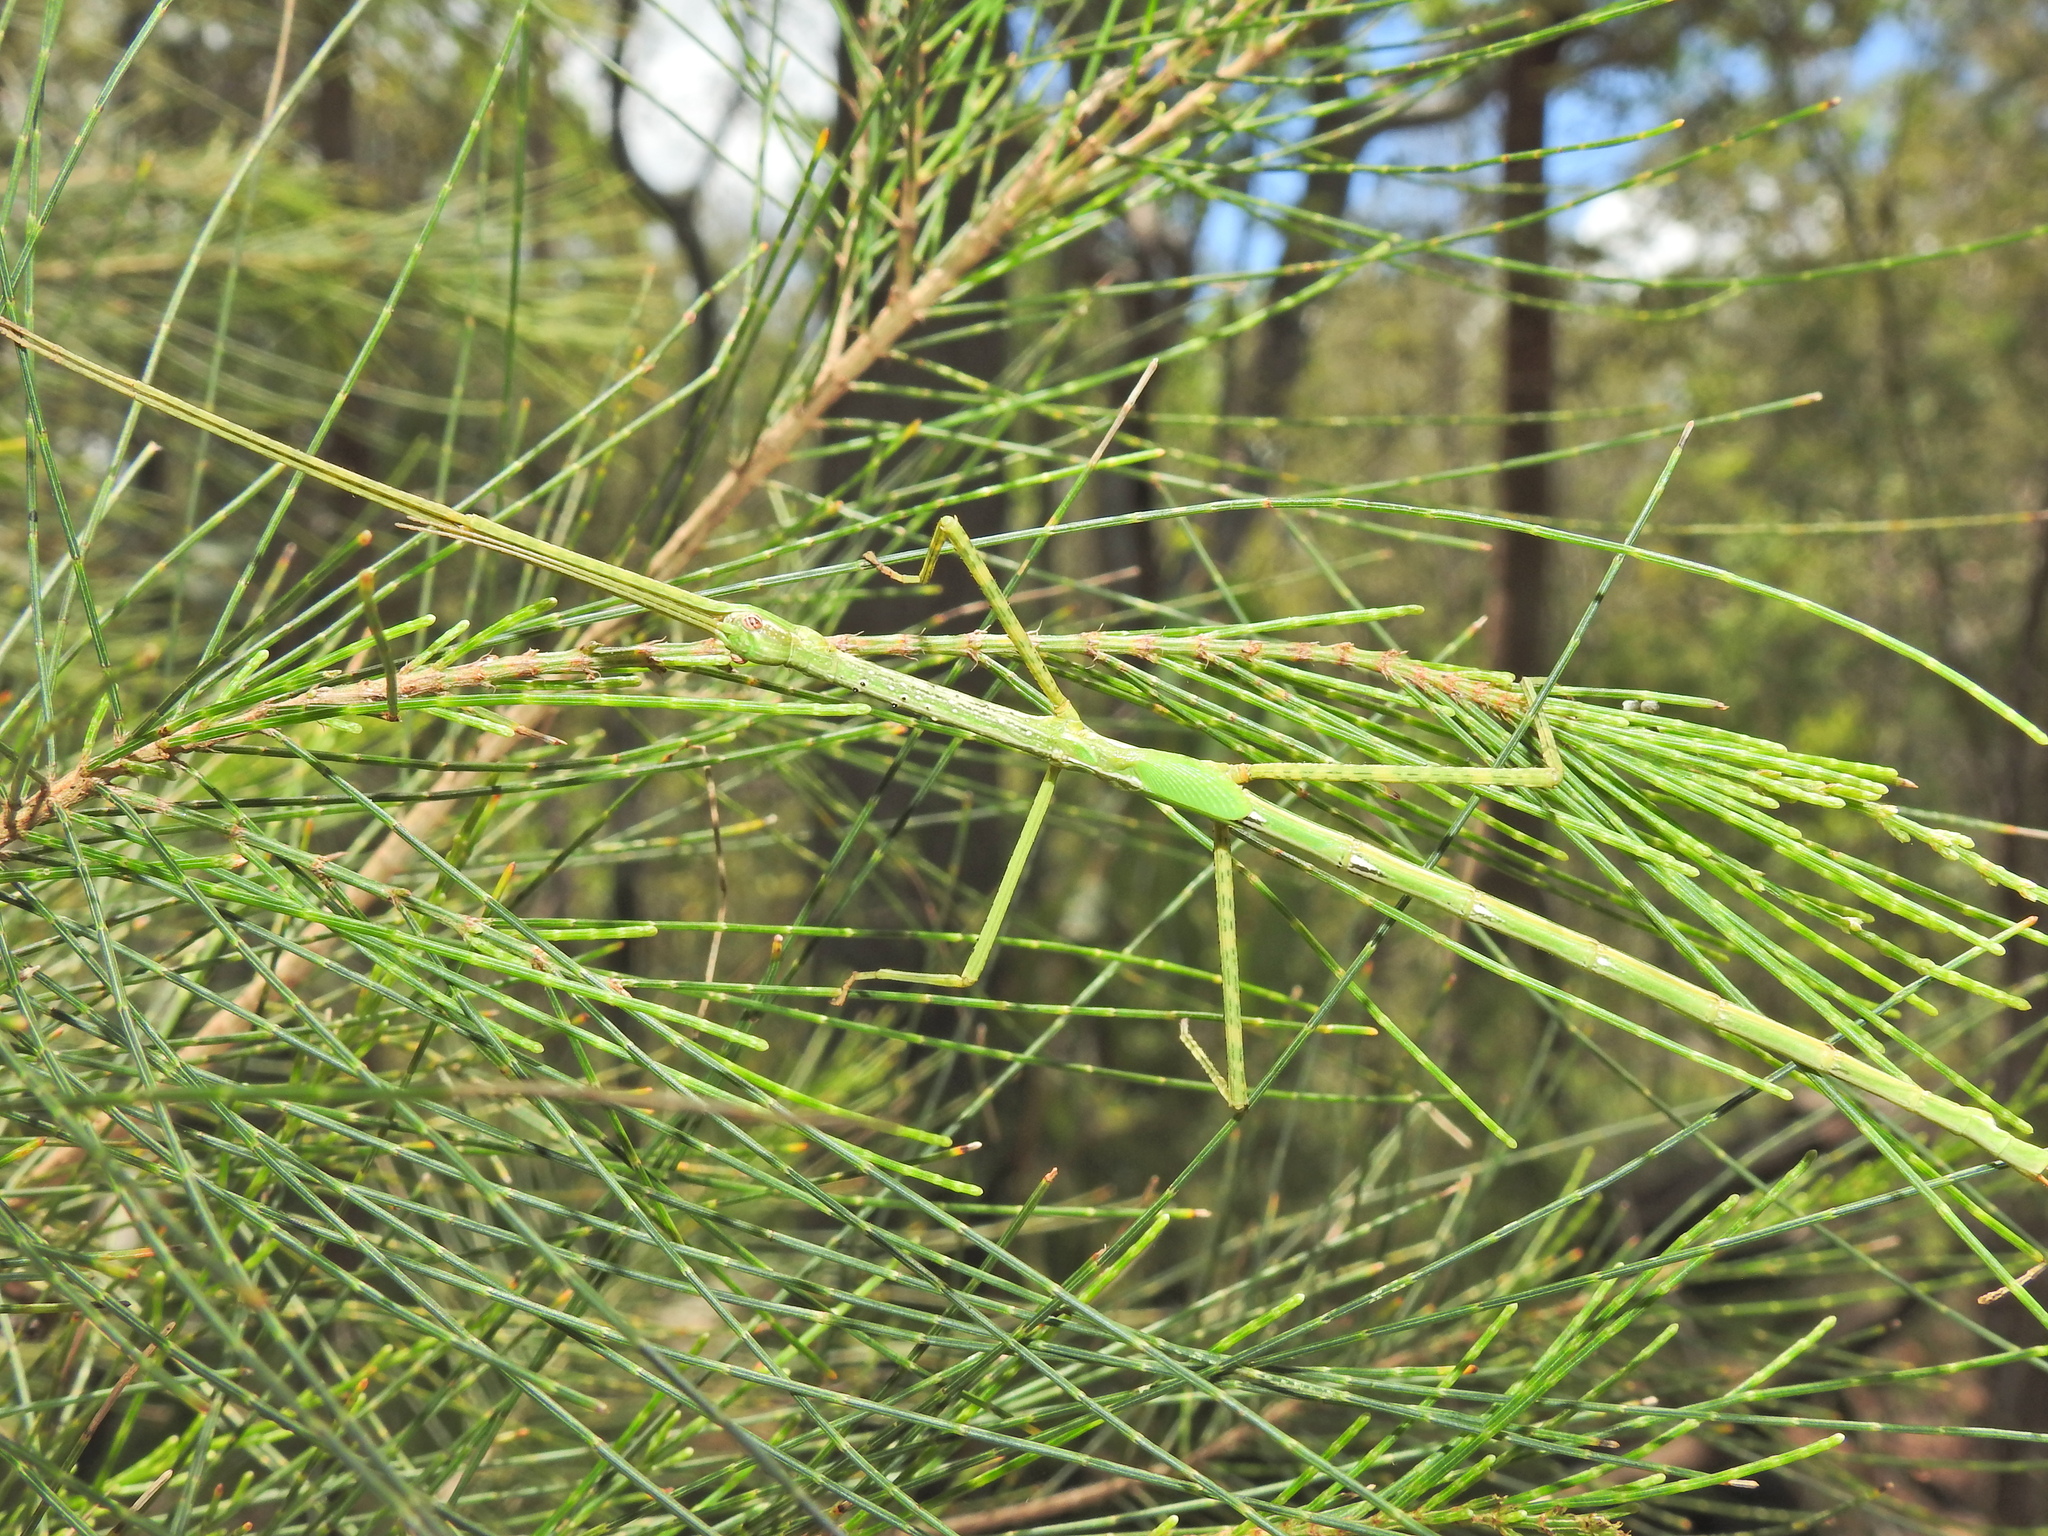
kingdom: Animalia
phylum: Arthropoda
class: Insecta
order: Phasmida
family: Phasmatidae
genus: Anchiale
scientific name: Anchiale austrotessulata
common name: Tessellated stick-insect
